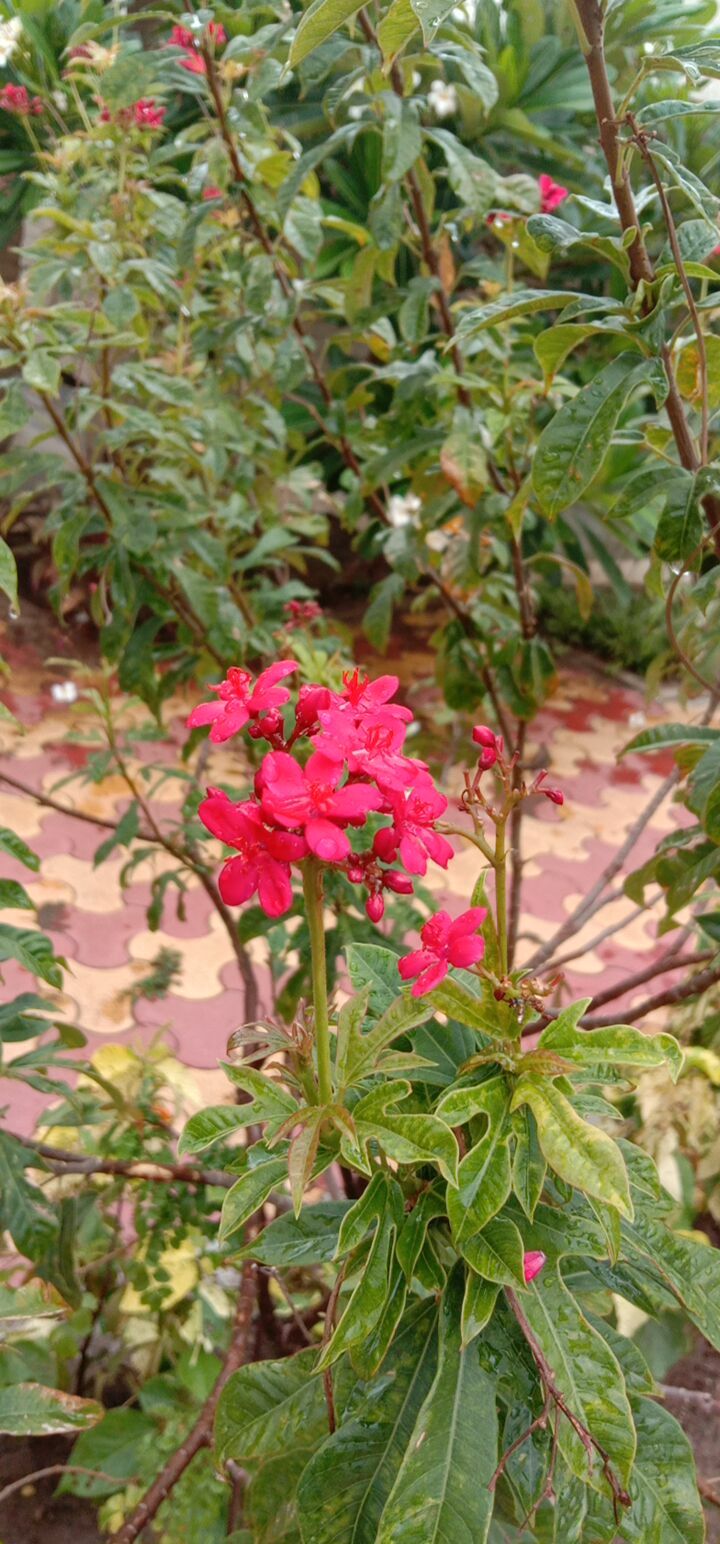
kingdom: Plantae
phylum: Tracheophyta
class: Magnoliopsida
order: Malpighiales
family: Euphorbiaceae
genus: Jatropha
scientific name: Jatropha integerrima
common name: Peregrina
